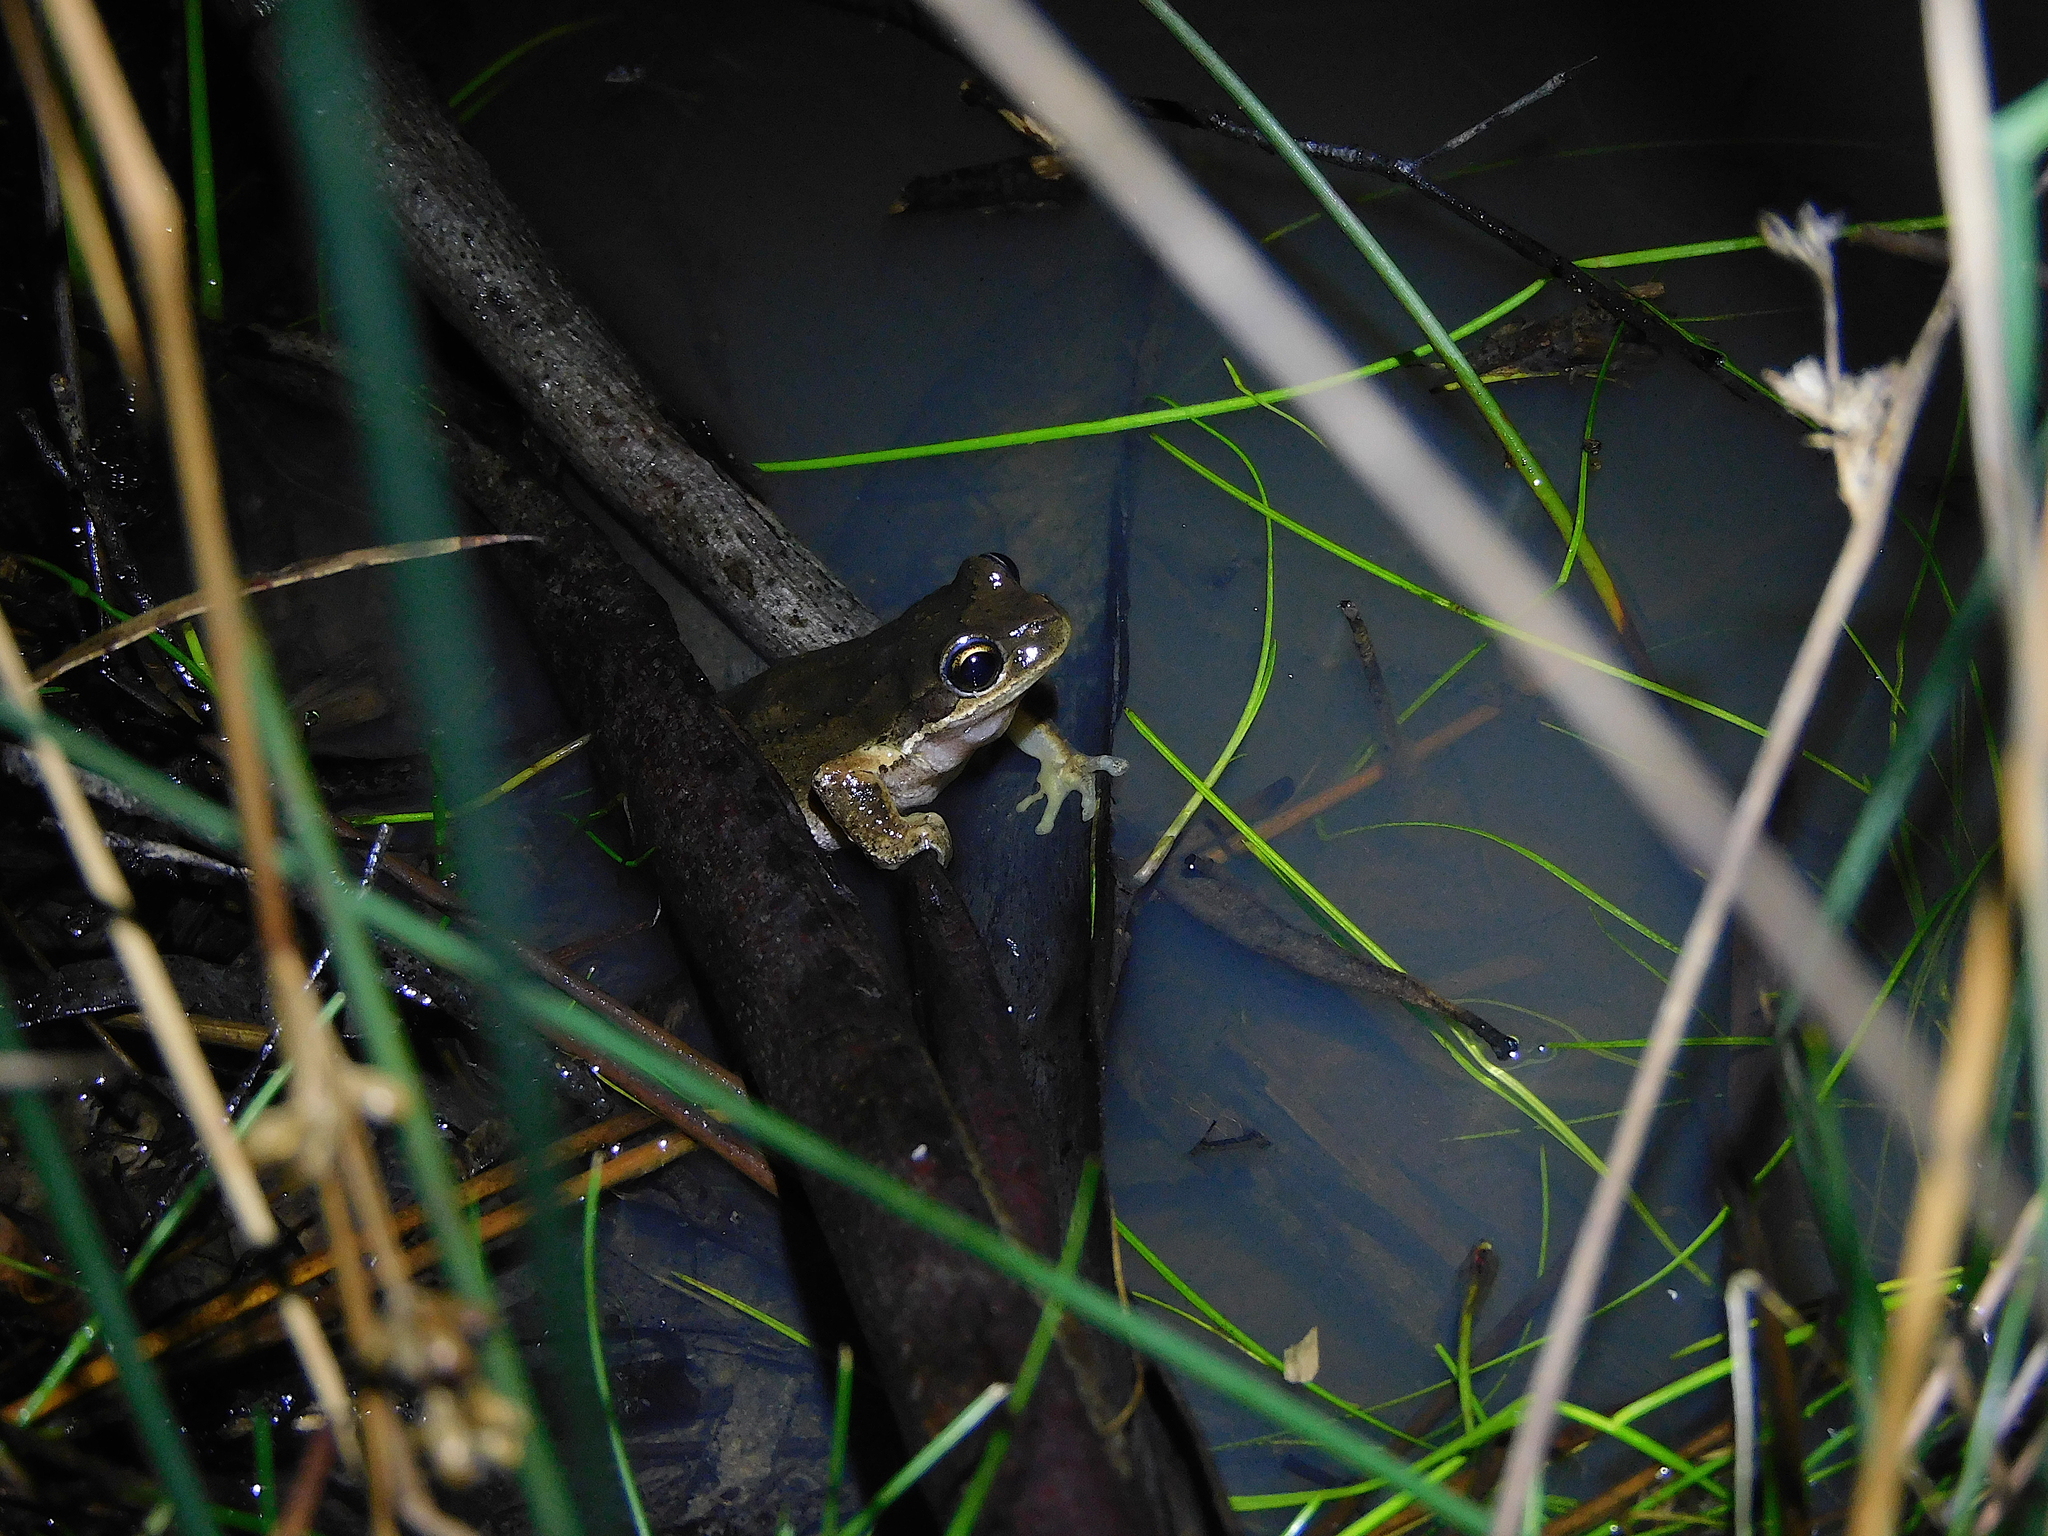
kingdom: Animalia
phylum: Chordata
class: Amphibia
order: Anura
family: Pelodryadidae
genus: Litoria
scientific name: Litoria ewingii
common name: Southern brown tree frog
